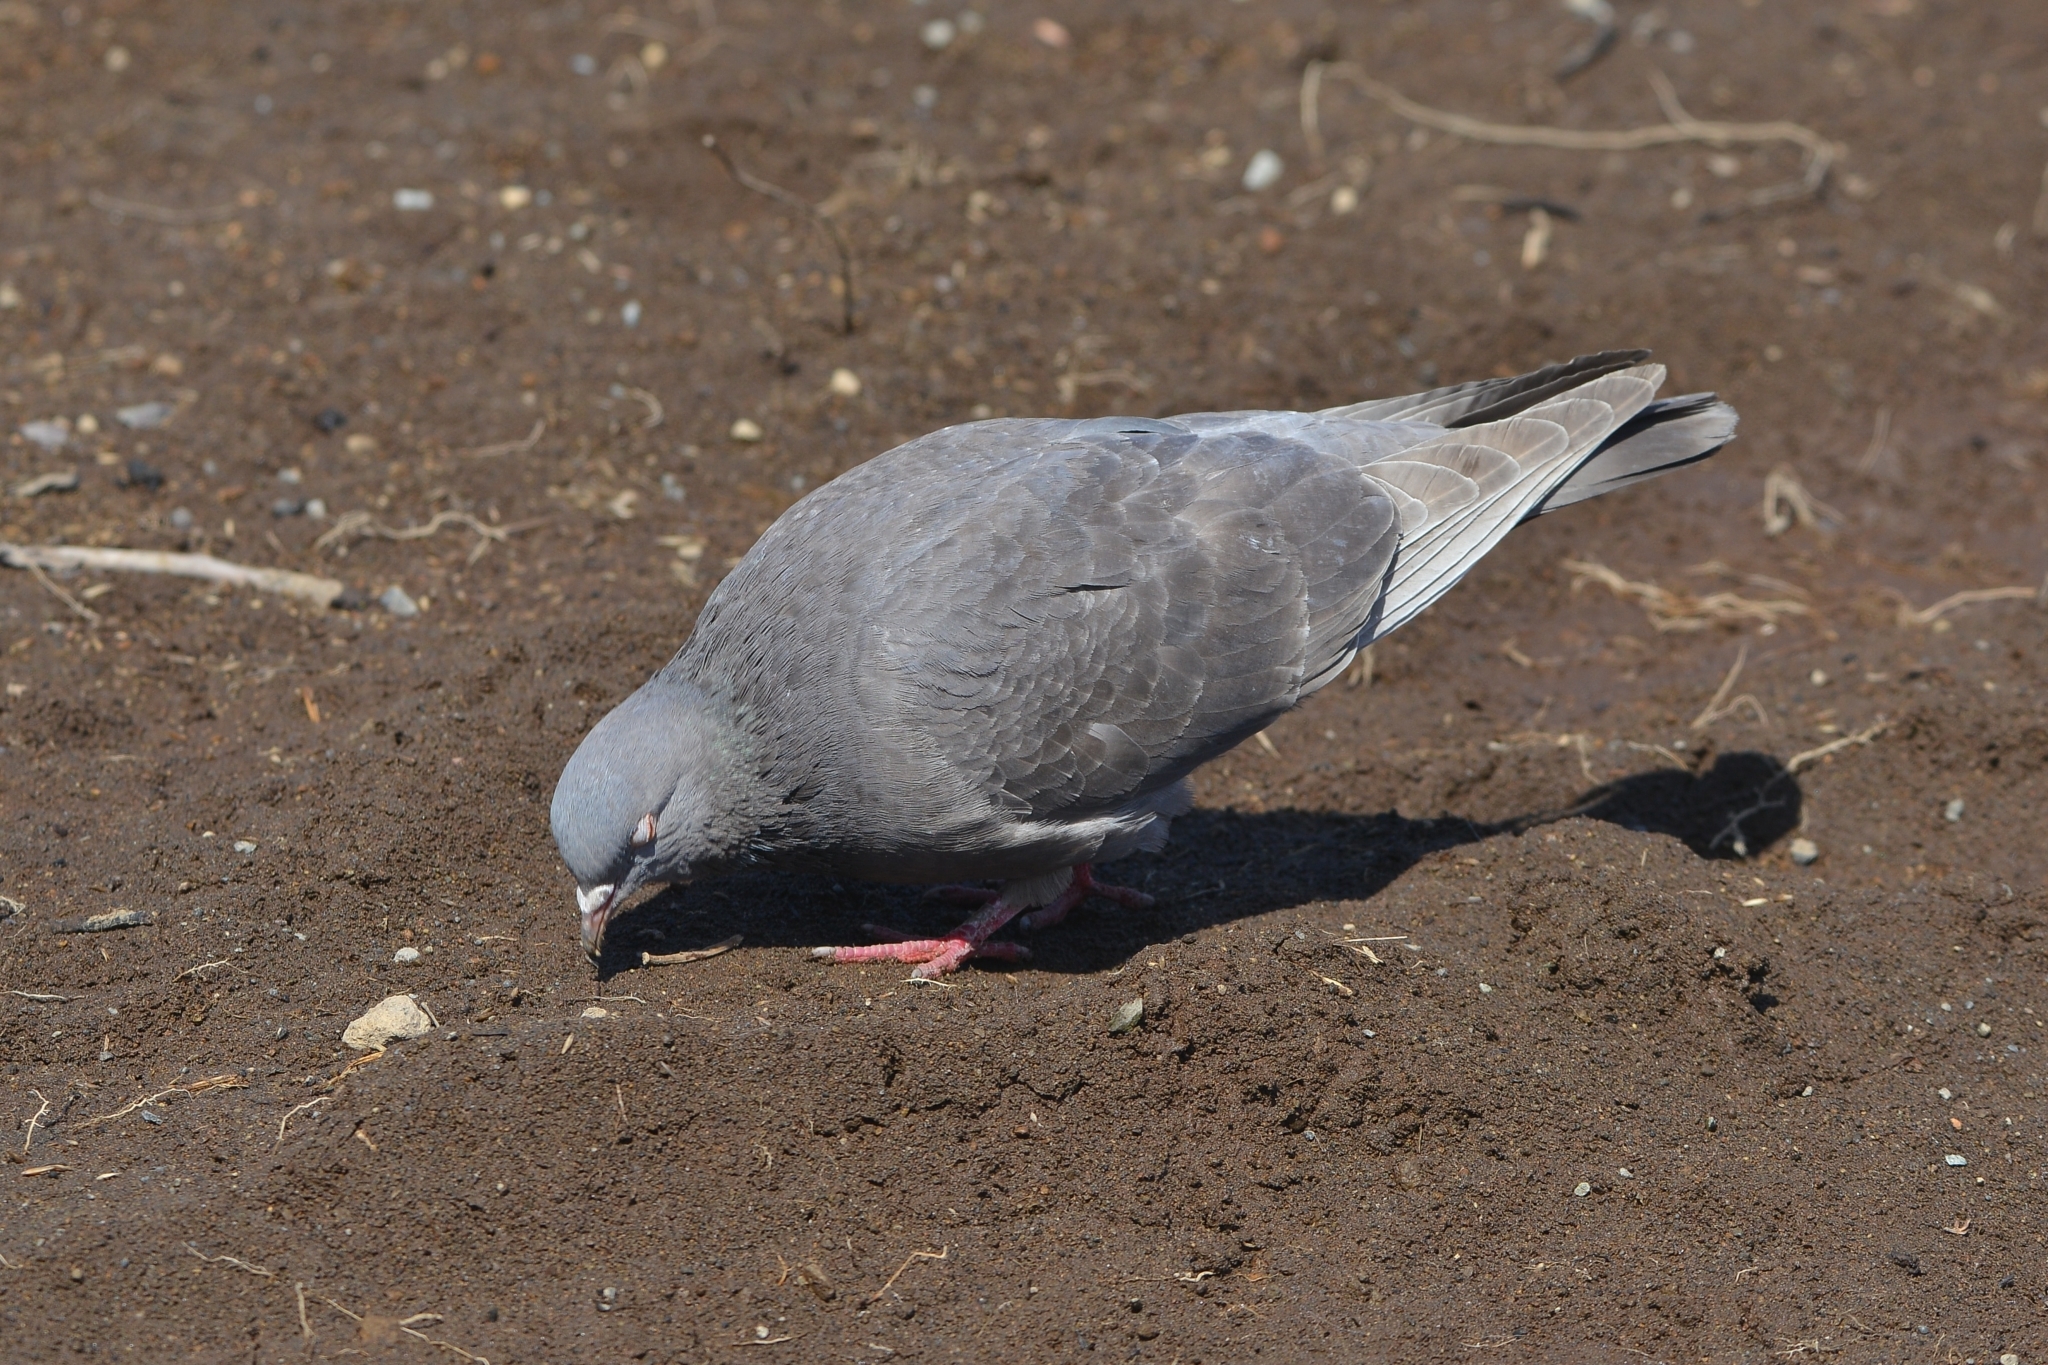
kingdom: Animalia
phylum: Chordata
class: Aves
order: Columbiformes
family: Columbidae
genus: Columba
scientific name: Columba livia
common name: Rock pigeon
